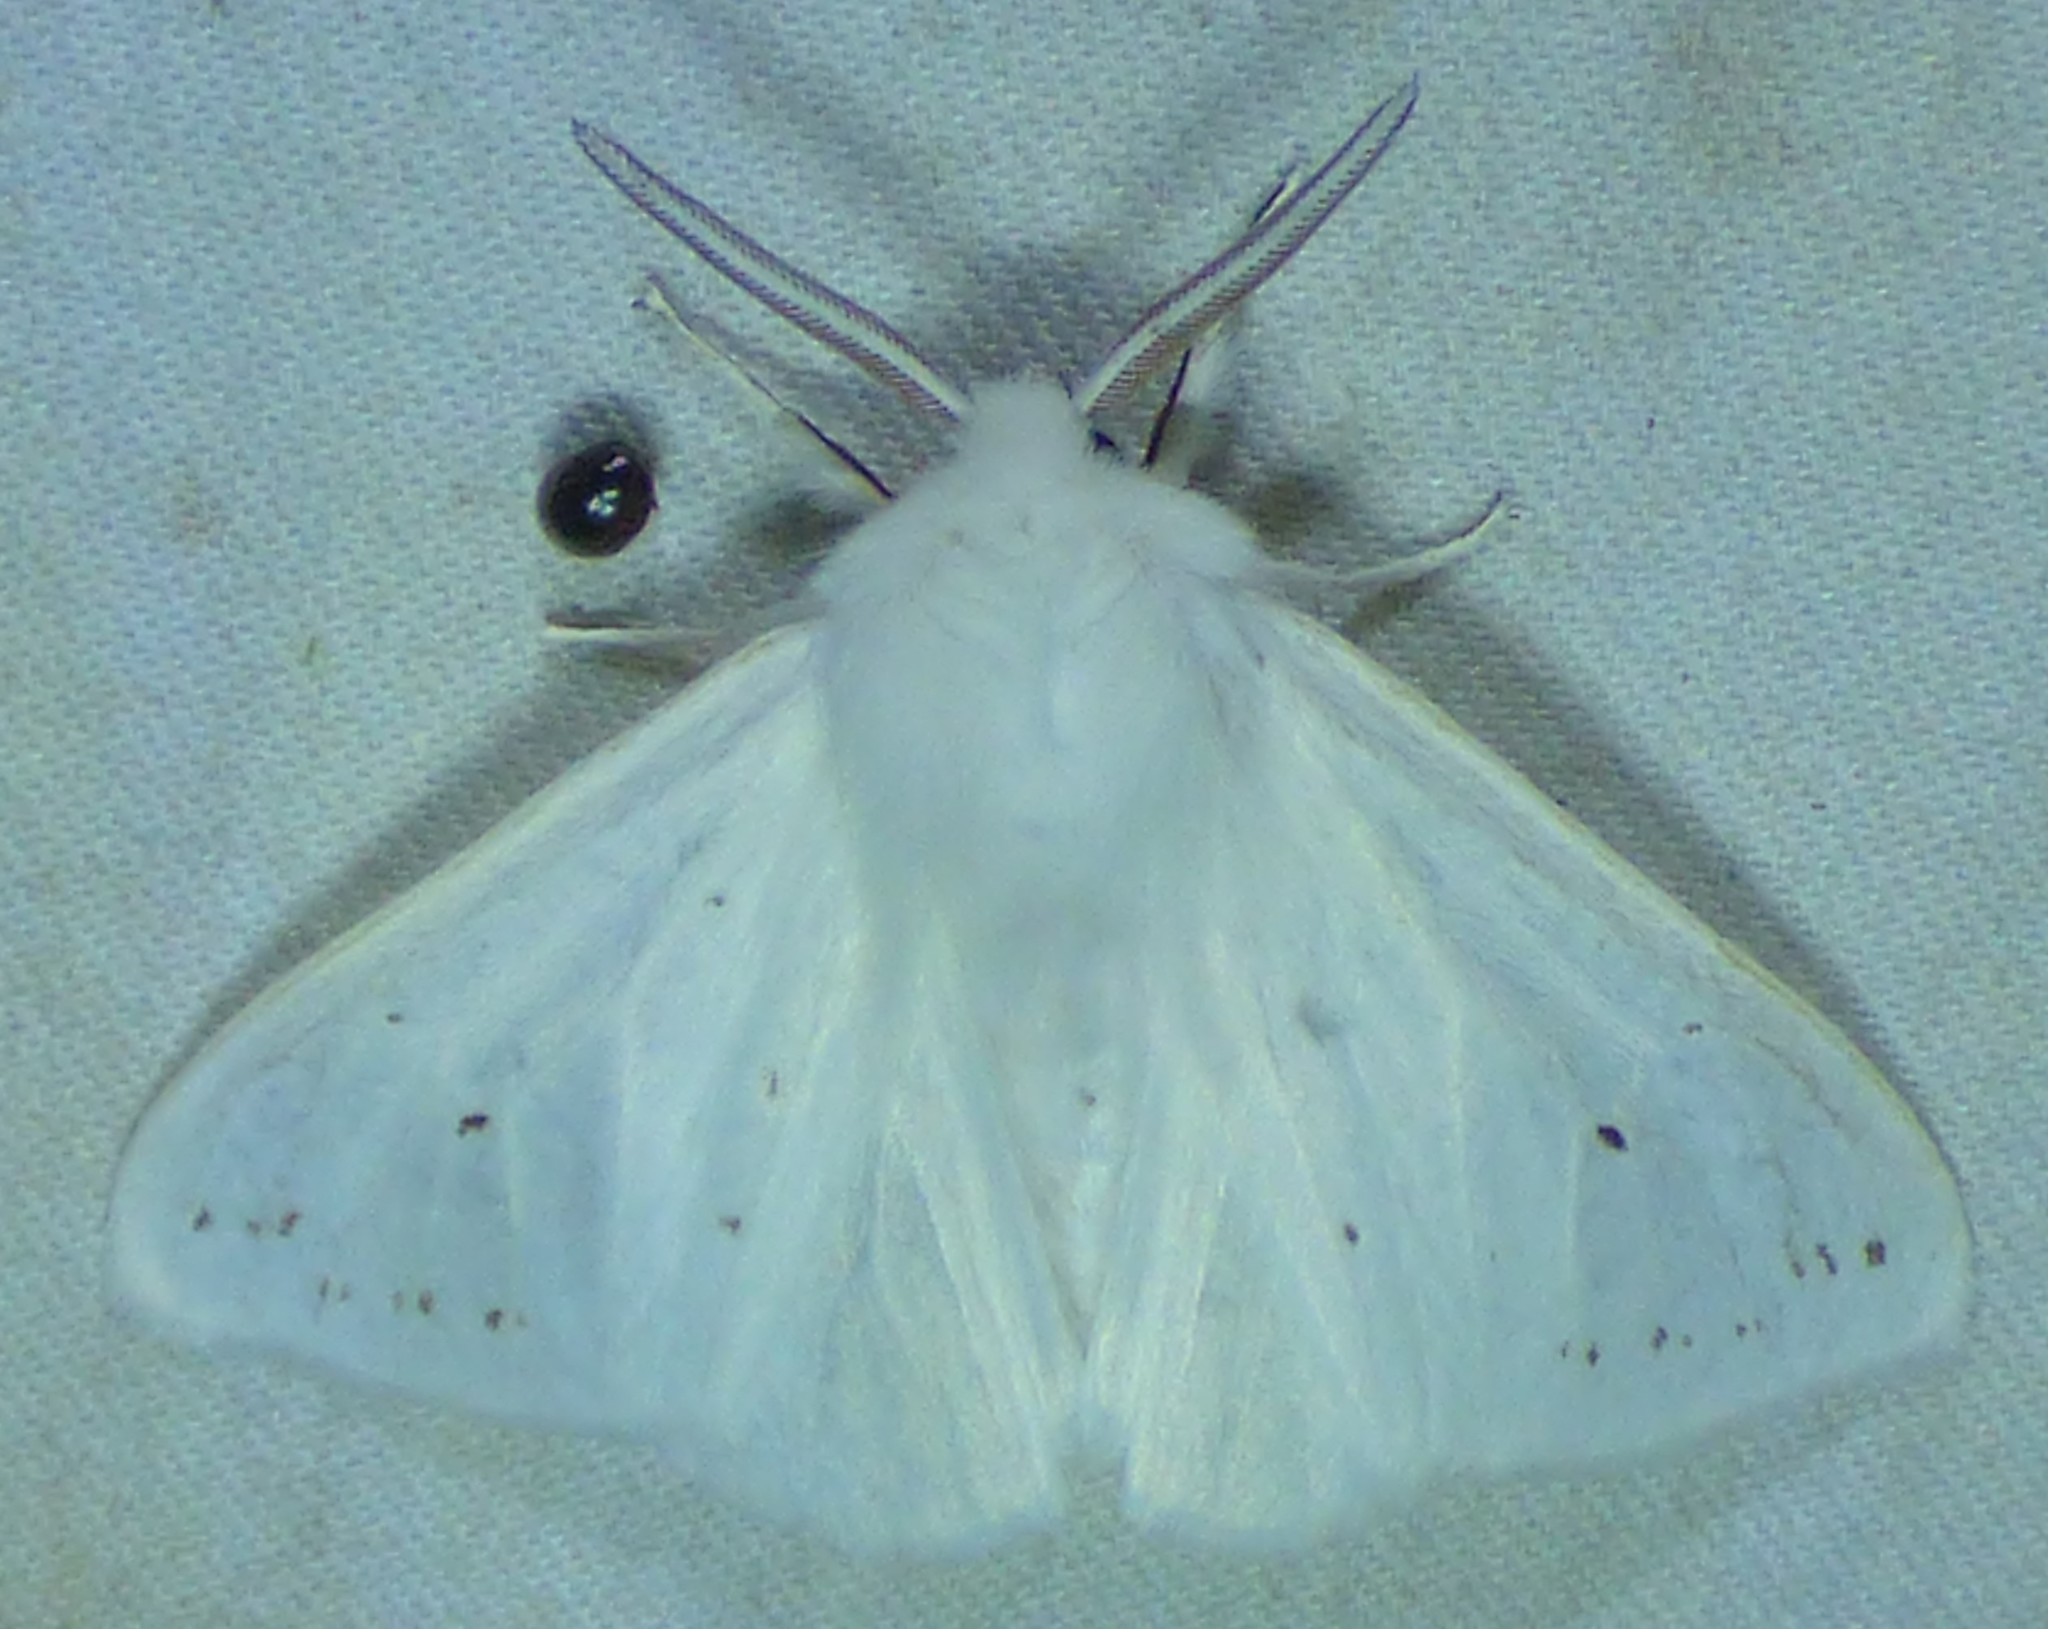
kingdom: Animalia
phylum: Arthropoda
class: Insecta
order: Lepidoptera
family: Erebidae
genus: Spilosoma
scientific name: Spilosoma congrua
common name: Agreeable tiger moth
